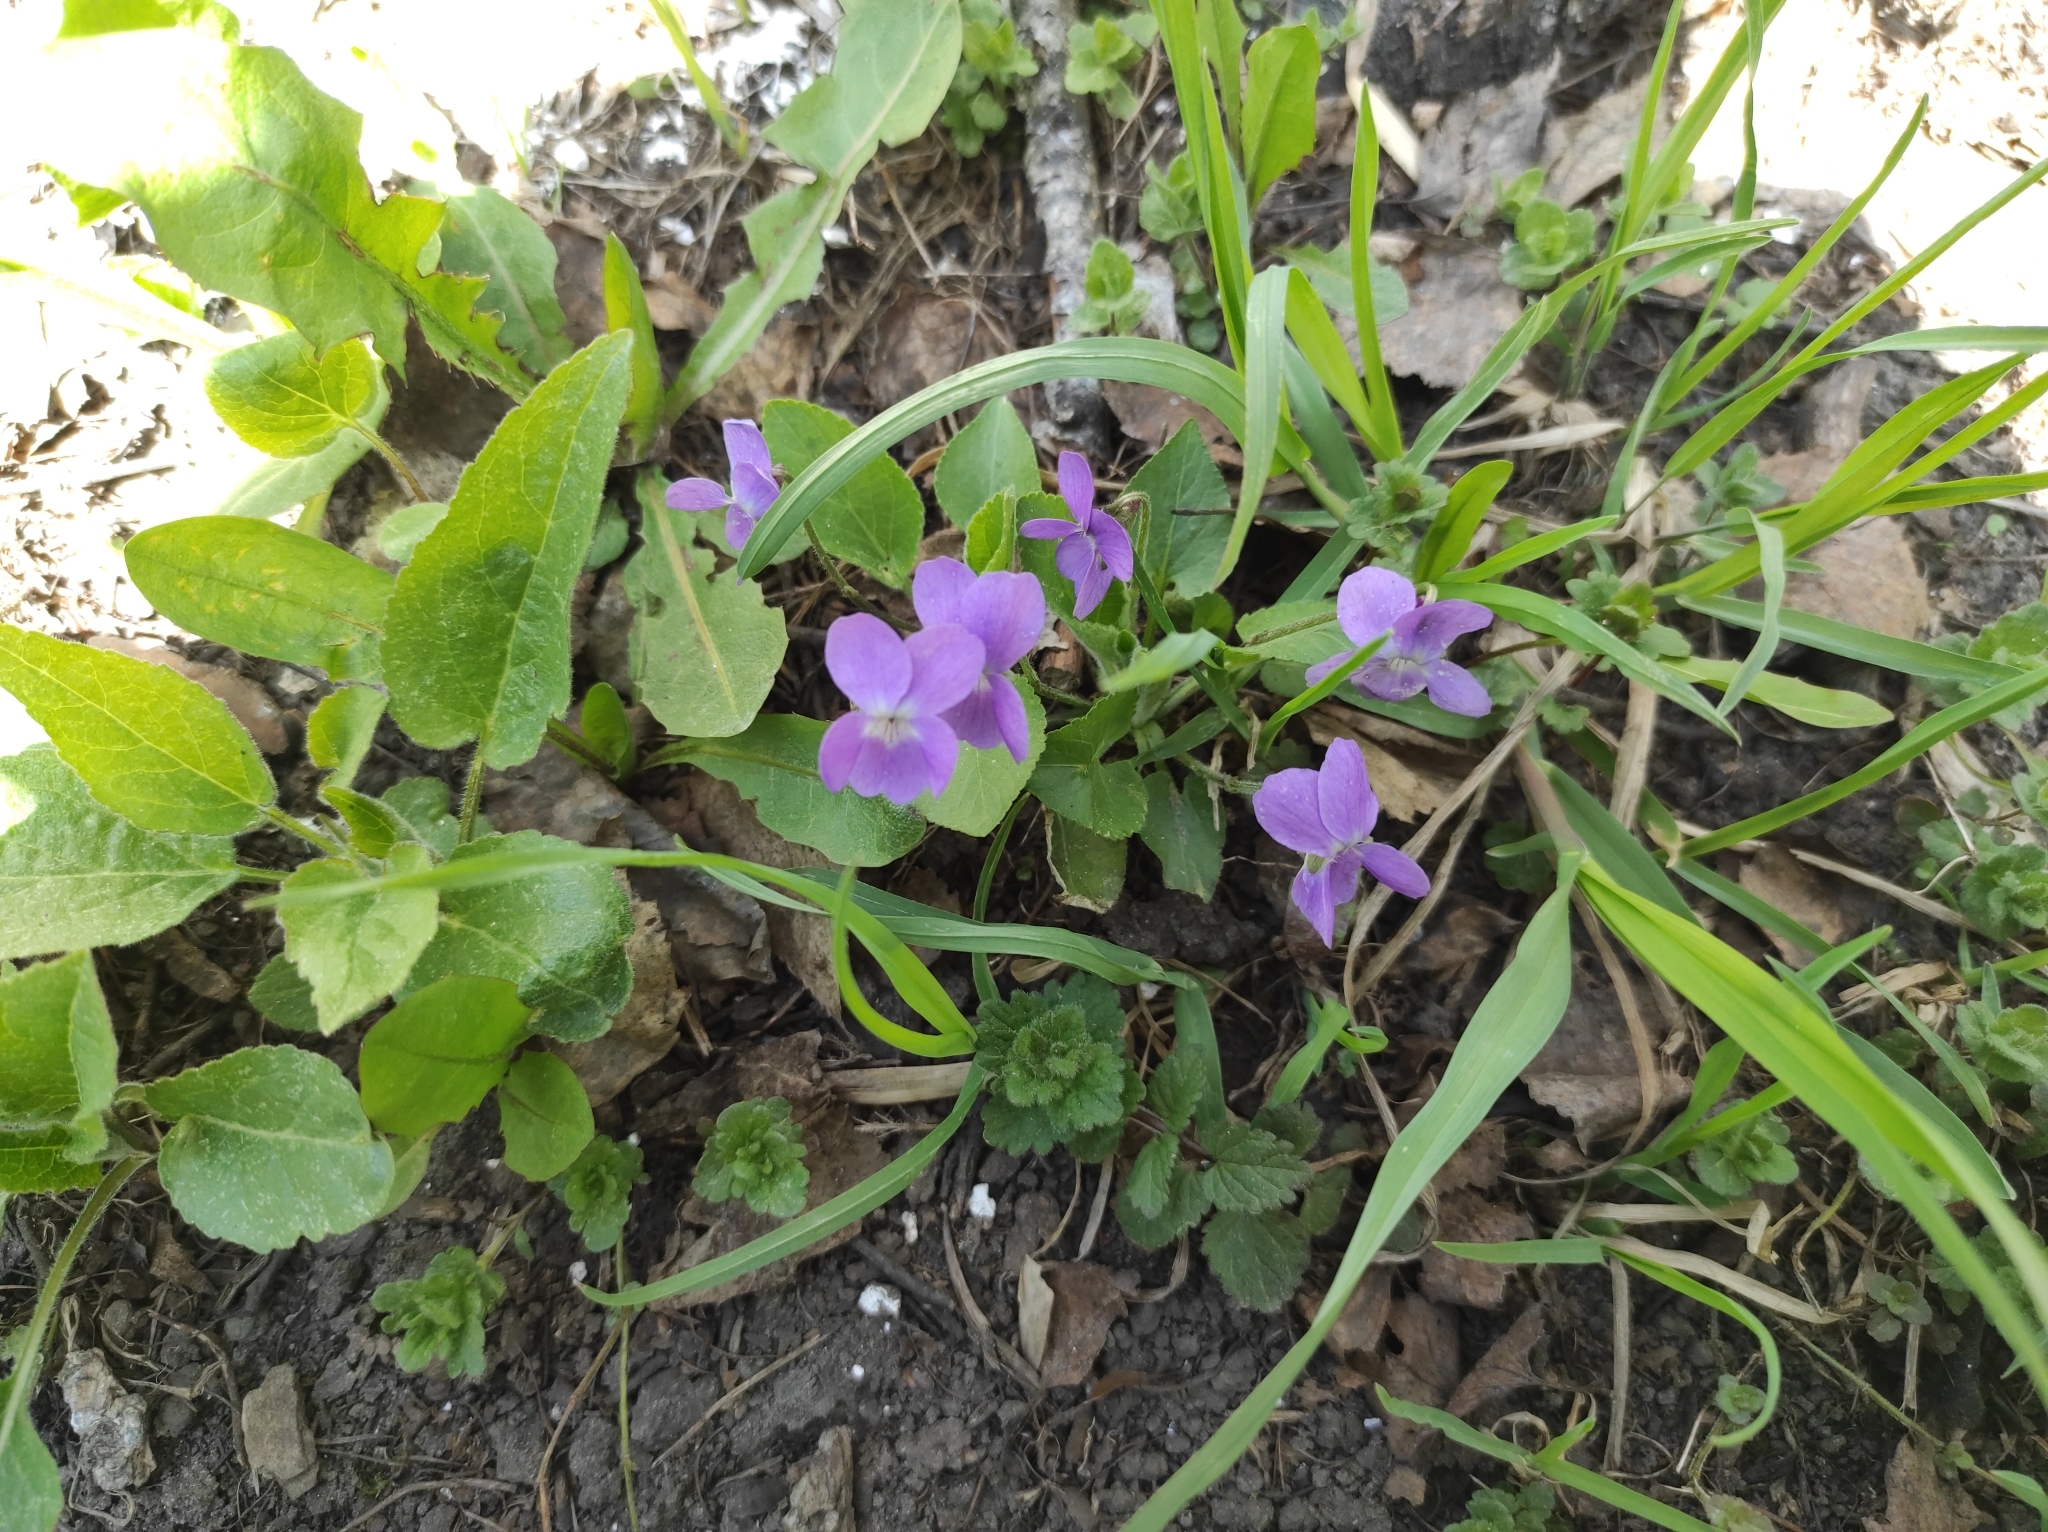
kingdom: Plantae
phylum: Tracheophyta
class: Magnoliopsida
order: Malpighiales
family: Violaceae
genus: Viola
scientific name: Viola hirta
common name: Hairy violet
